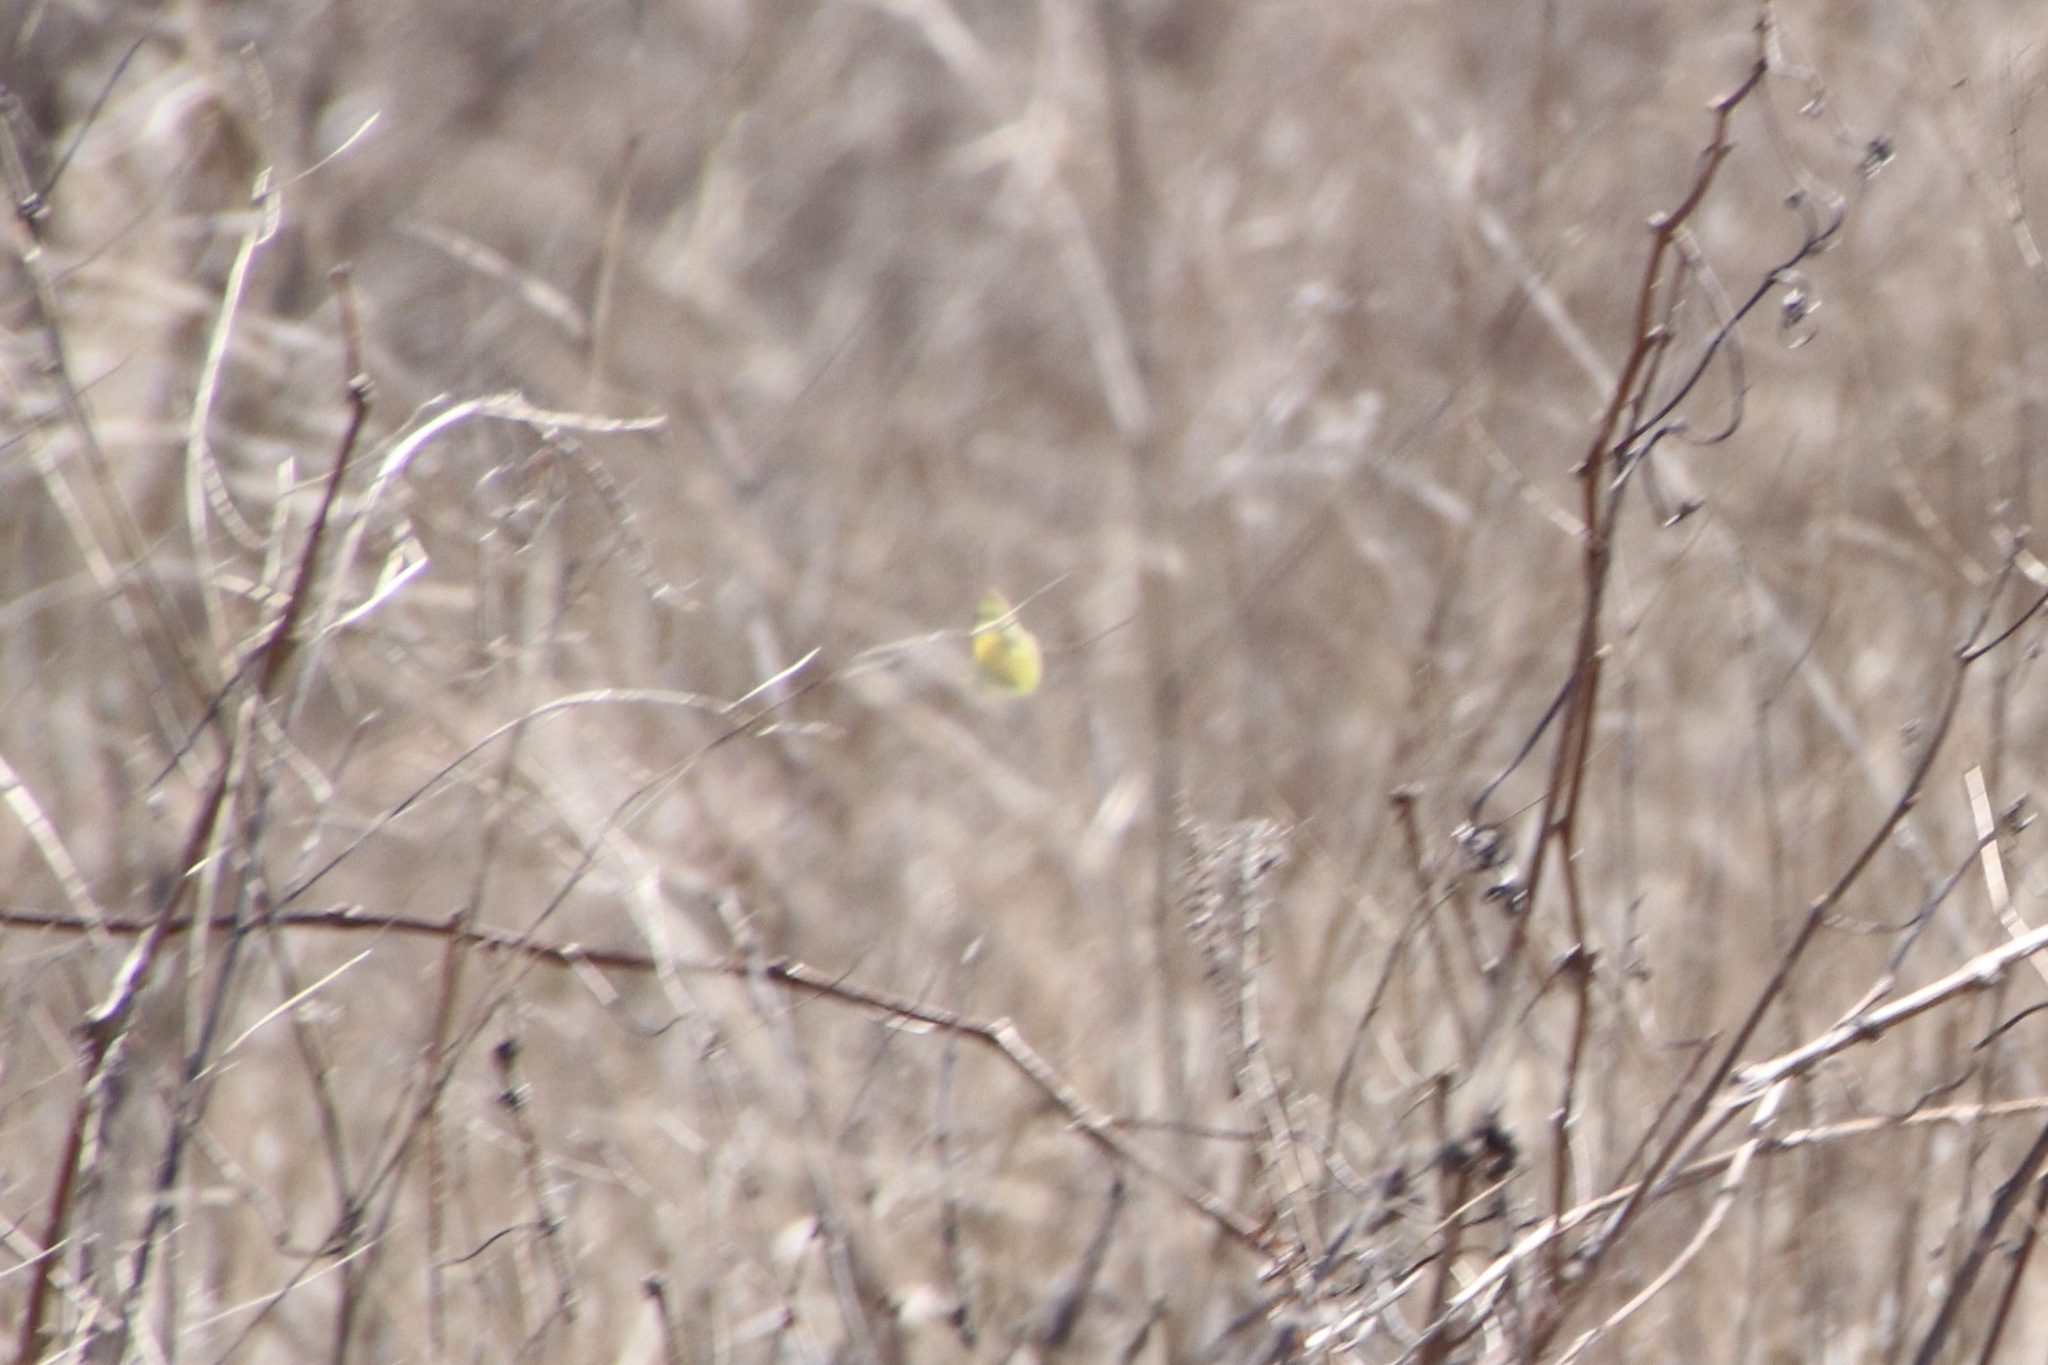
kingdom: Animalia
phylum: Arthropoda
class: Insecta
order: Lepidoptera
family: Pieridae
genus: Colias
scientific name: Colias eurytheme
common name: Alfalfa butterfly
